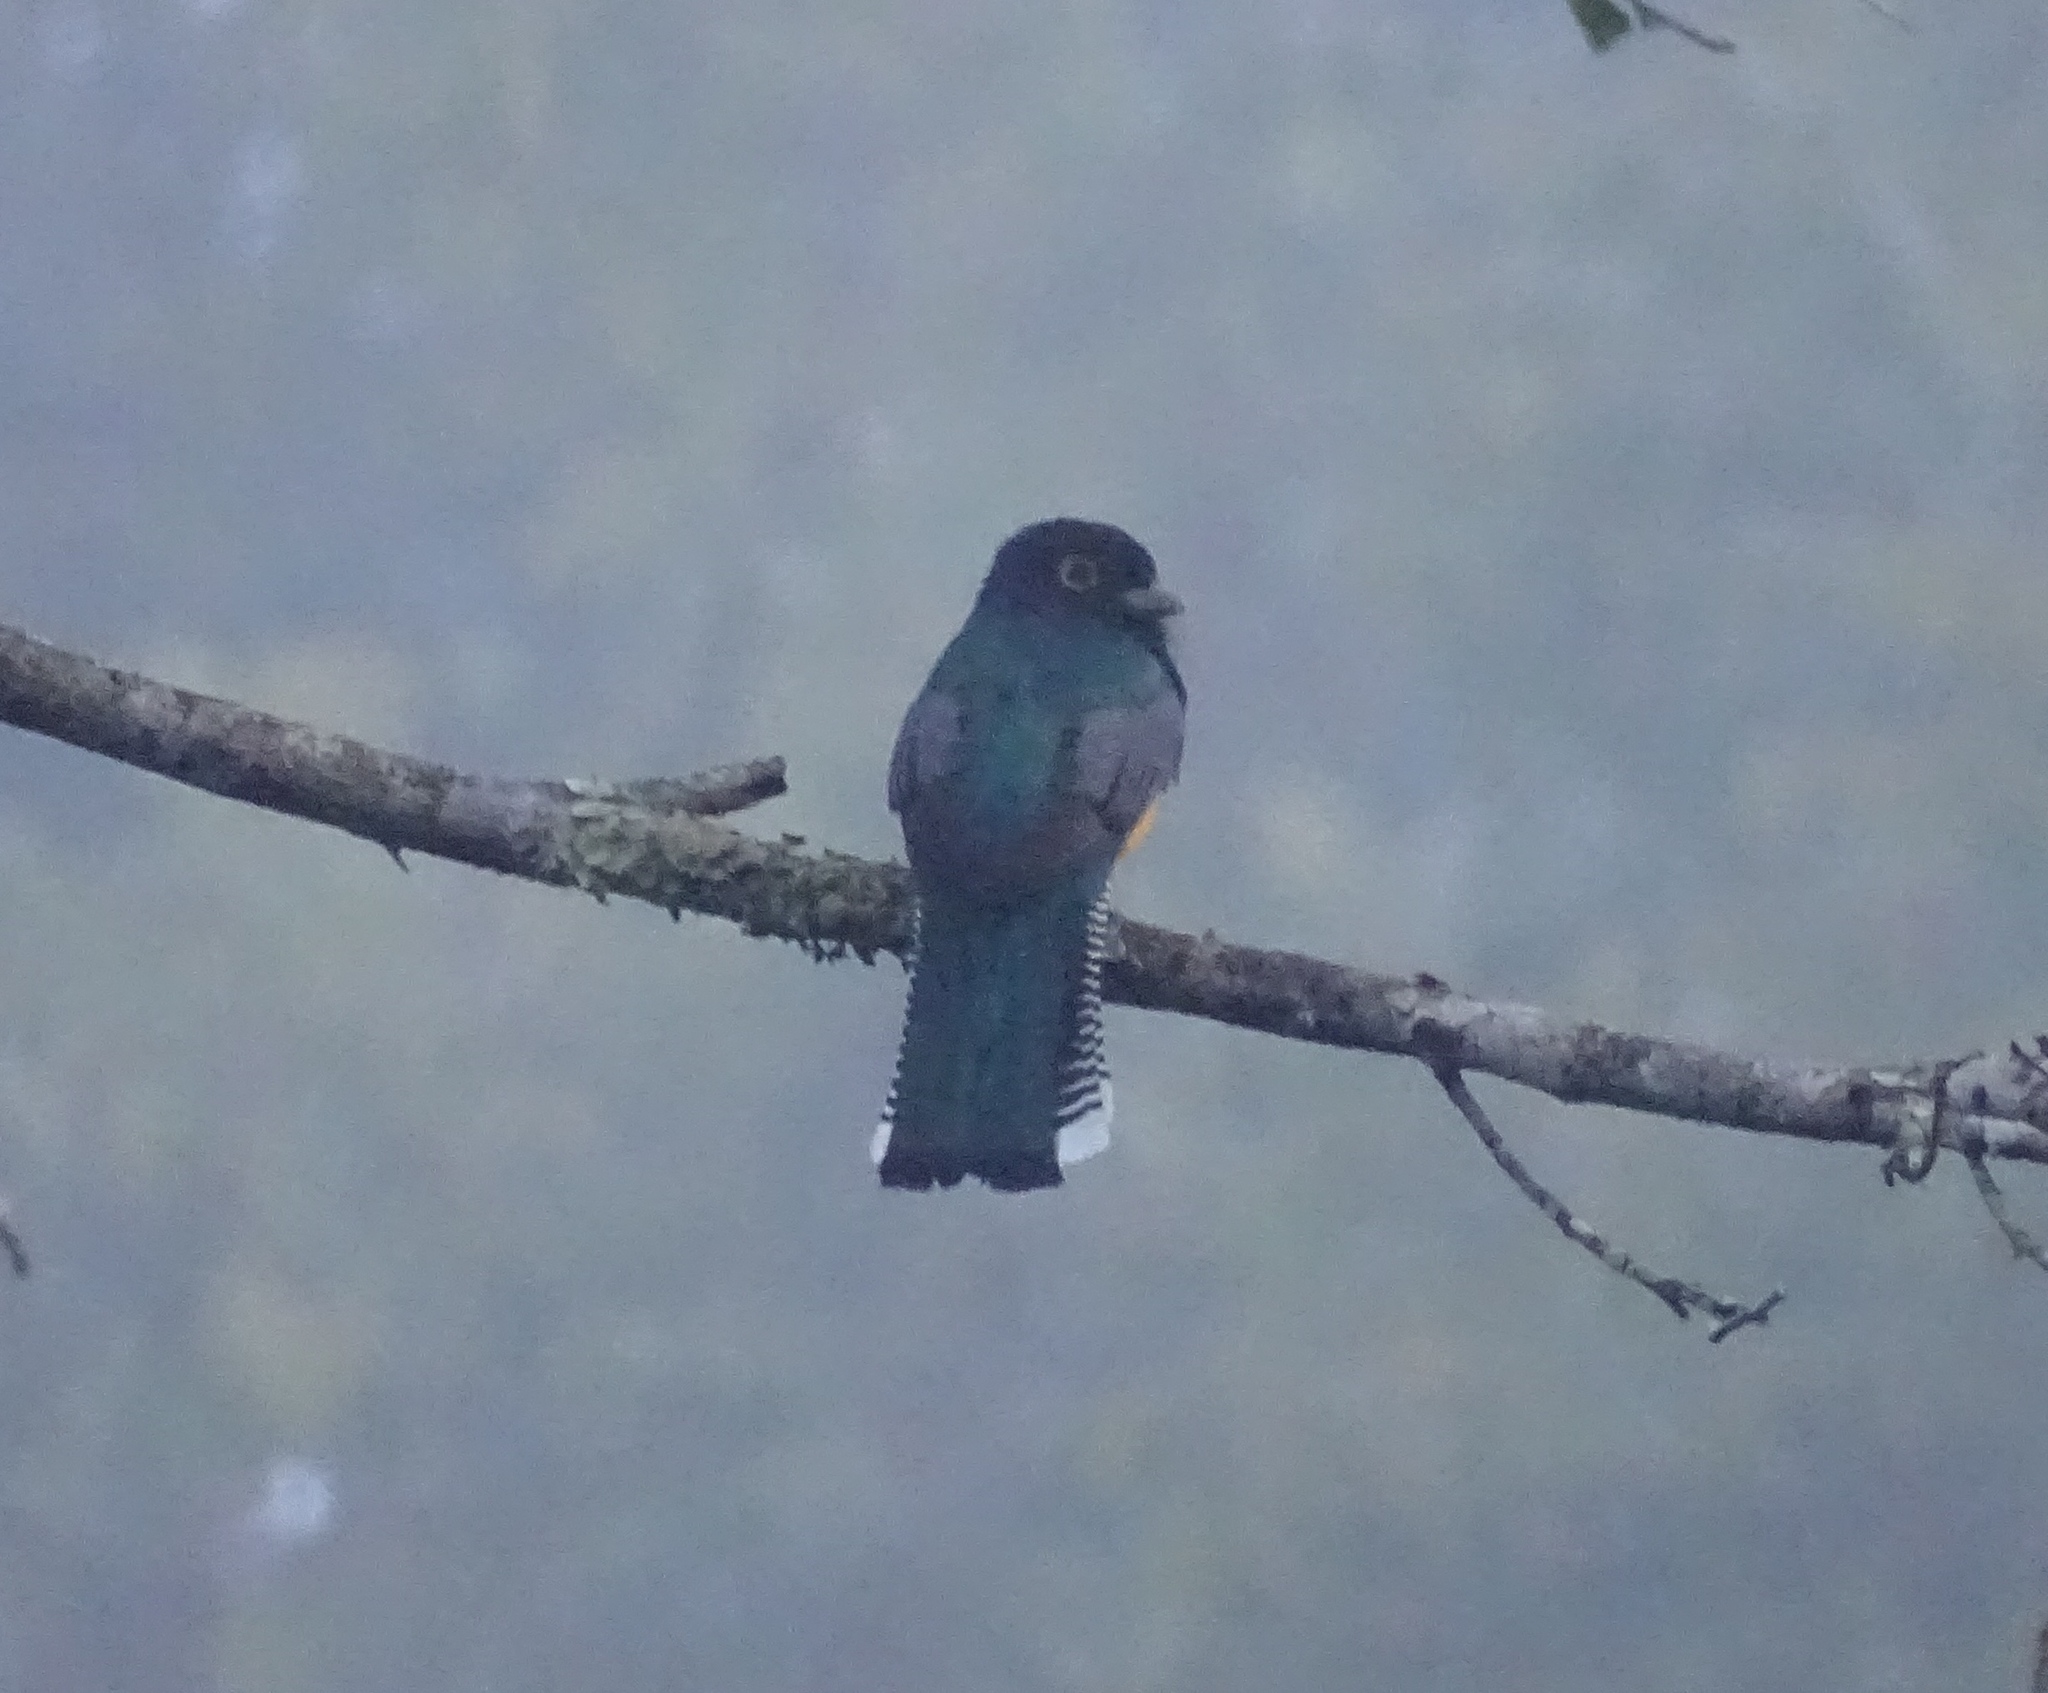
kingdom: Animalia
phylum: Chordata
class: Aves
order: Trogoniformes
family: Trogonidae
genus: Trogon
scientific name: Trogon caligatus
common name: Gartered trogon
